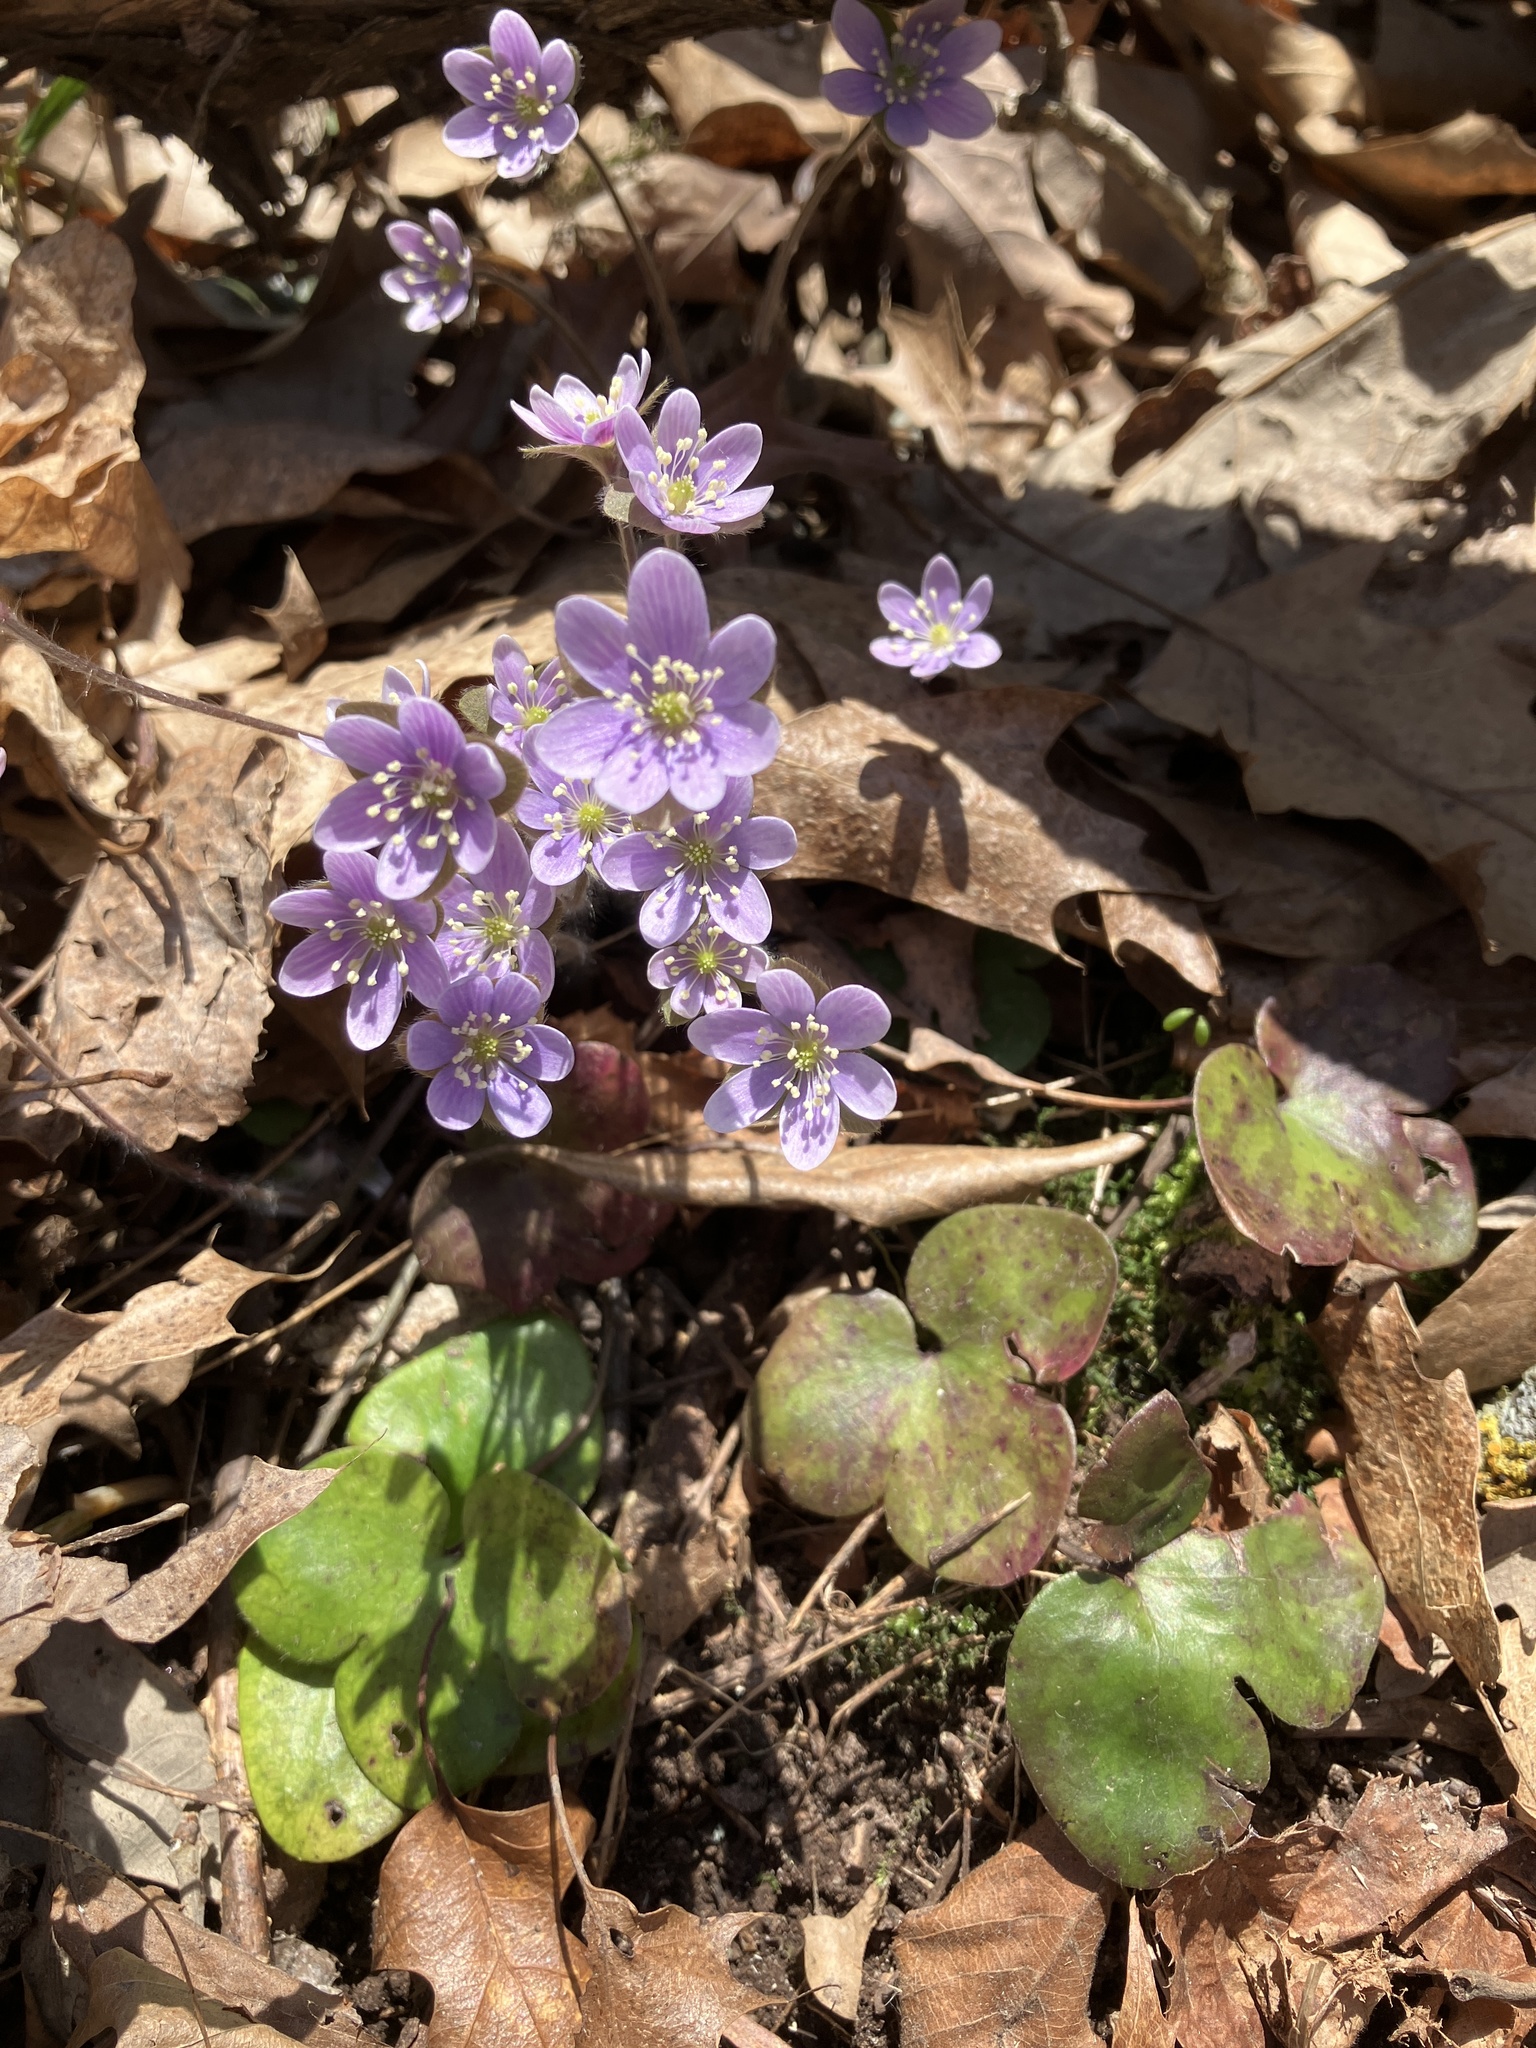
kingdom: Plantae
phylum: Tracheophyta
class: Magnoliopsida
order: Ranunculales
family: Ranunculaceae
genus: Hepatica
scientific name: Hepatica americana
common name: American hepatica
